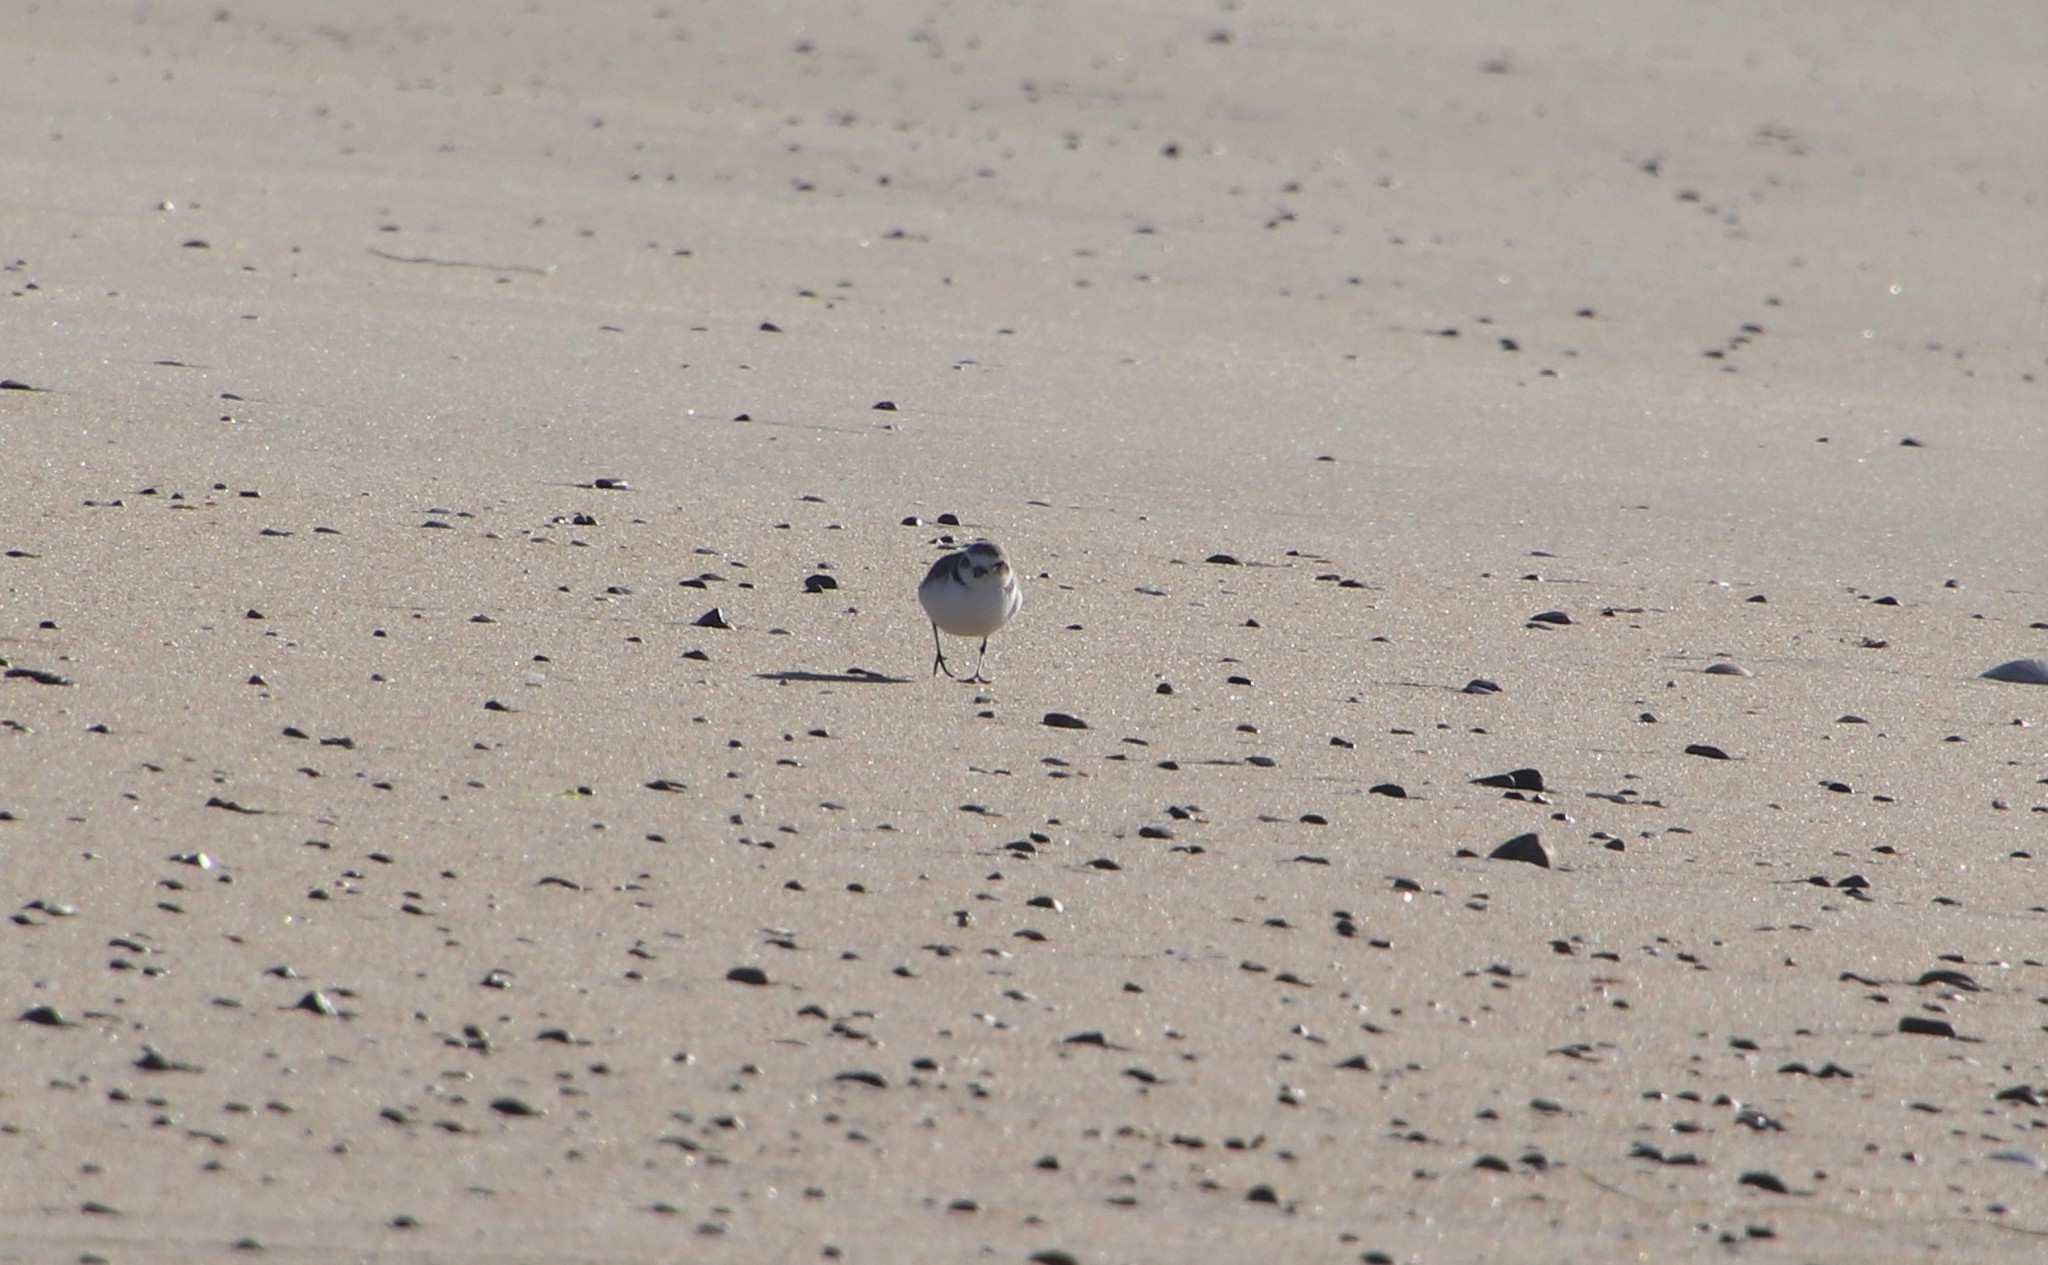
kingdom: Animalia
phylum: Chordata
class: Aves
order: Charadriiformes
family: Charadriidae
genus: Anarhynchus
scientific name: Anarhynchus
